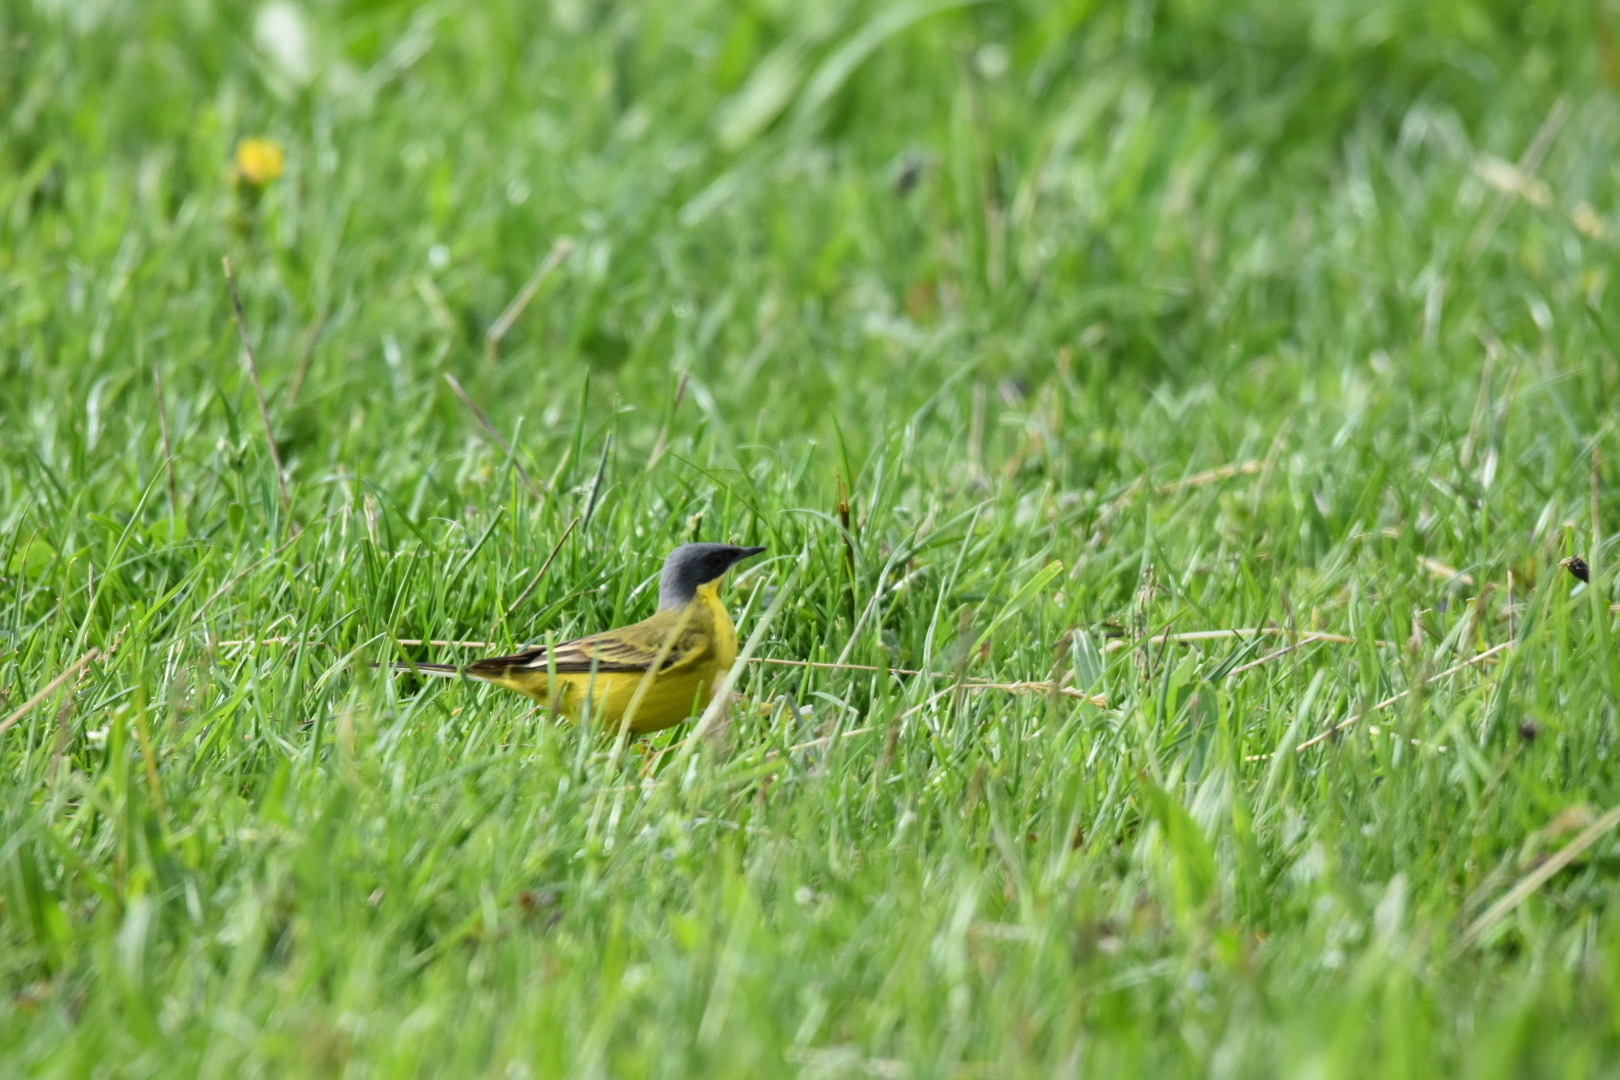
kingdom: Animalia
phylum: Chordata
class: Aves
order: Passeriformes
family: Motacillidae
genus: Motacilla
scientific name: Motacilla flava
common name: Western yellow wagtail
